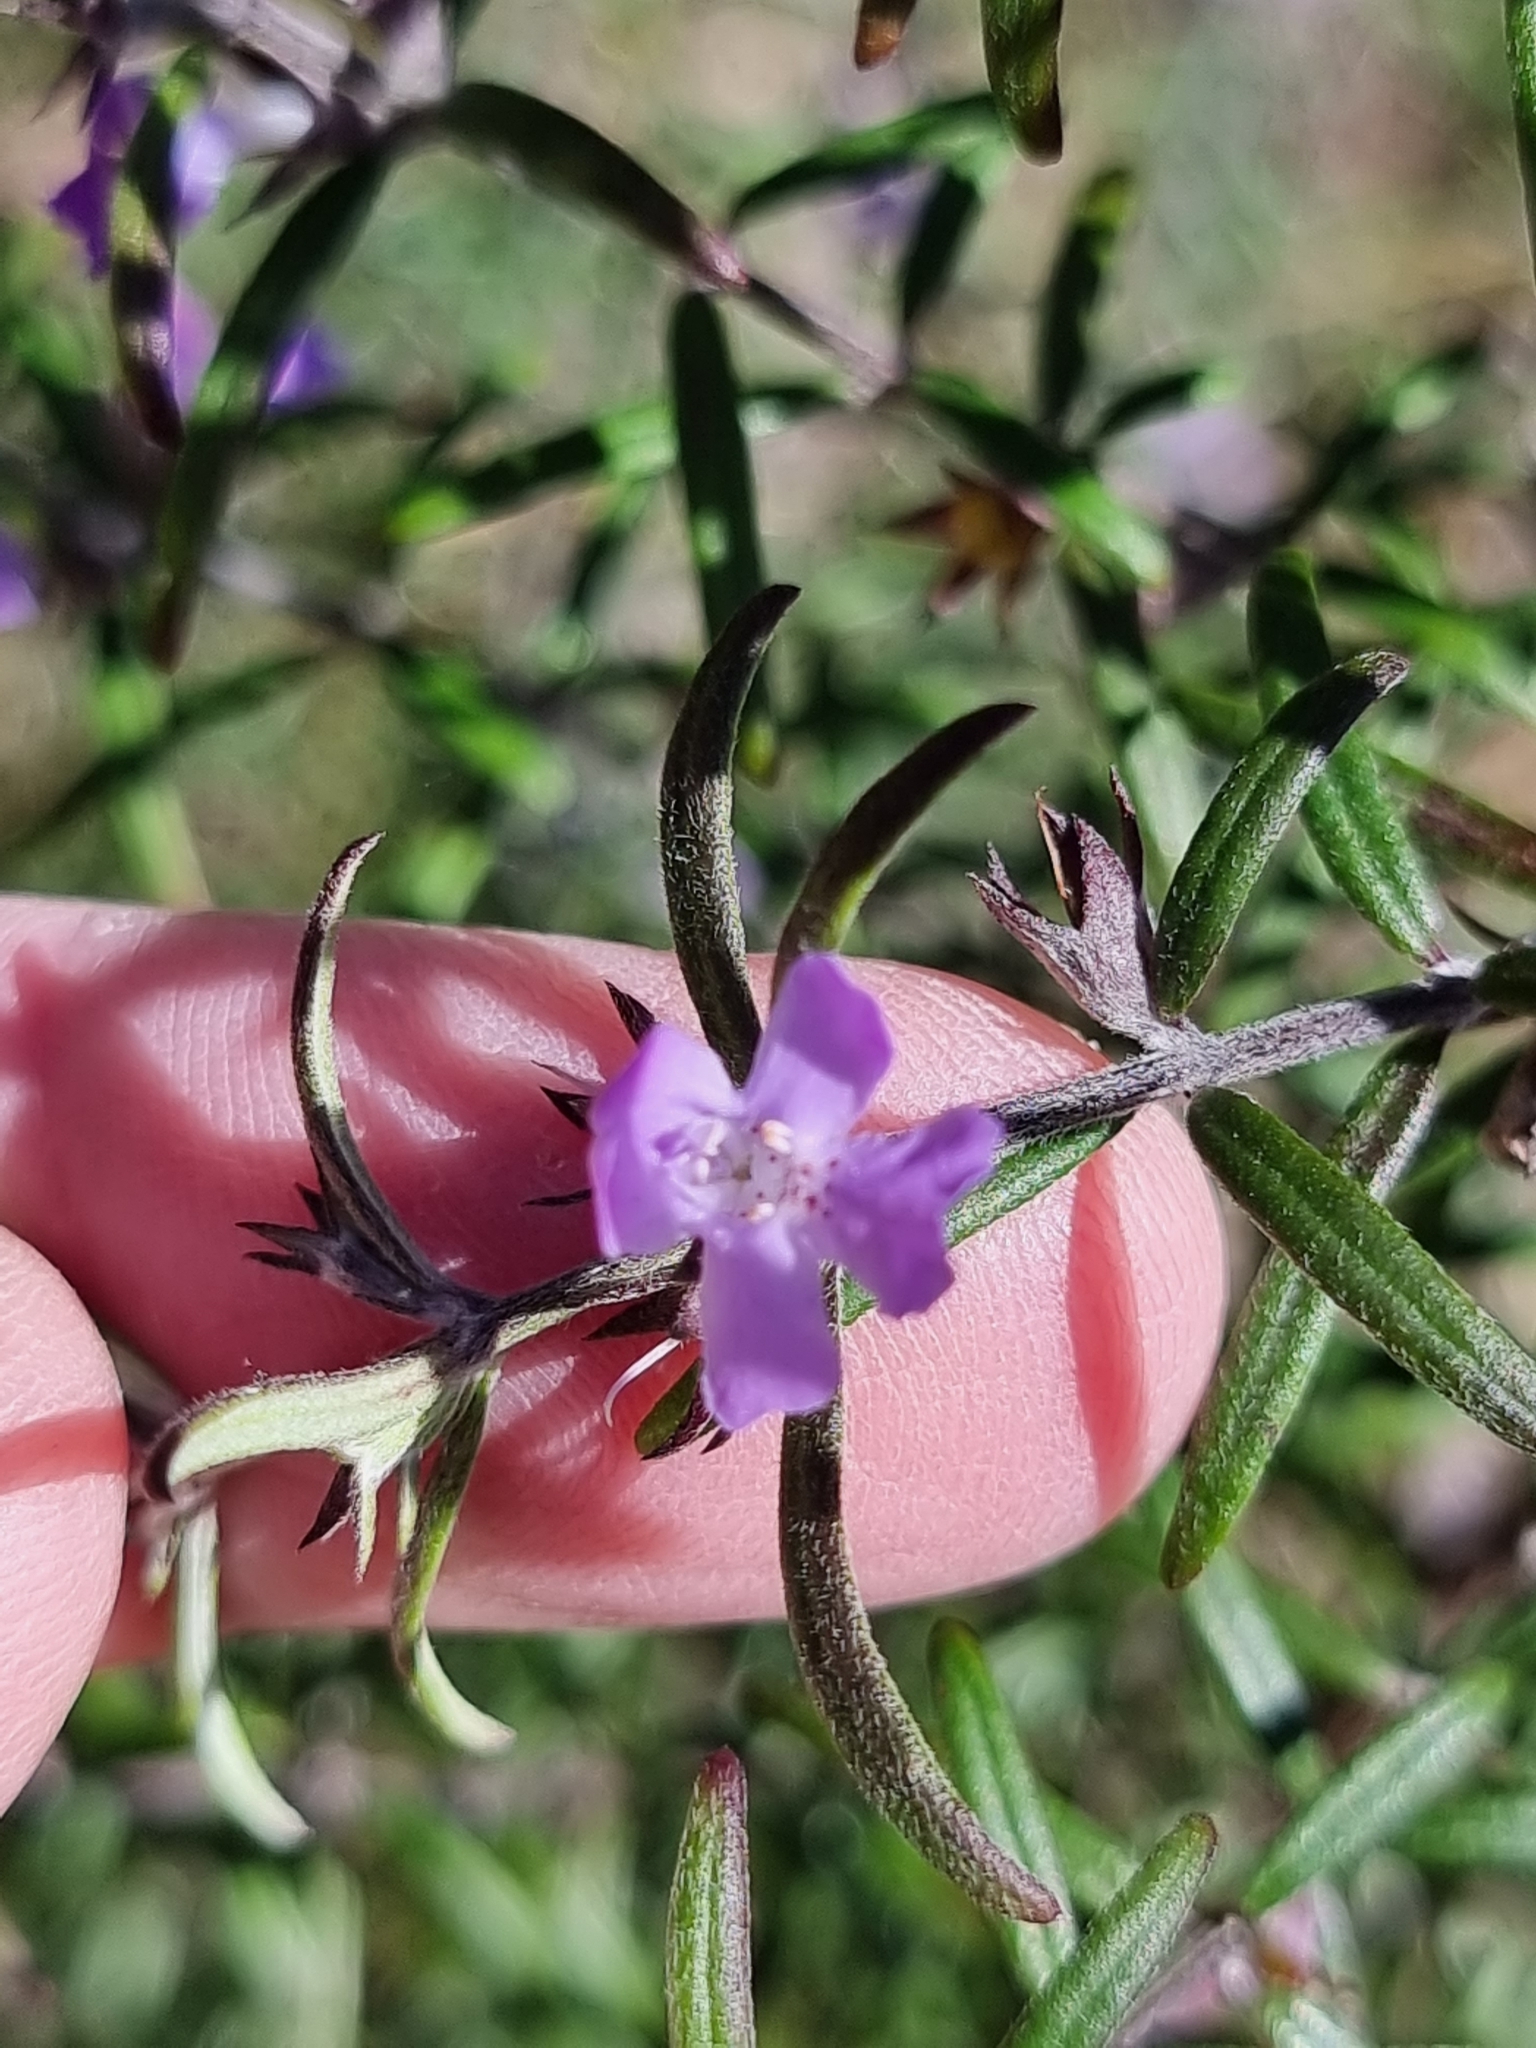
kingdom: Plantae
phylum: Tracheophyta
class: Magnoliopsida
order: Lamiales
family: Lamiaceae
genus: Westringia
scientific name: Westringia eremicola
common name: Slender western-rosemary
